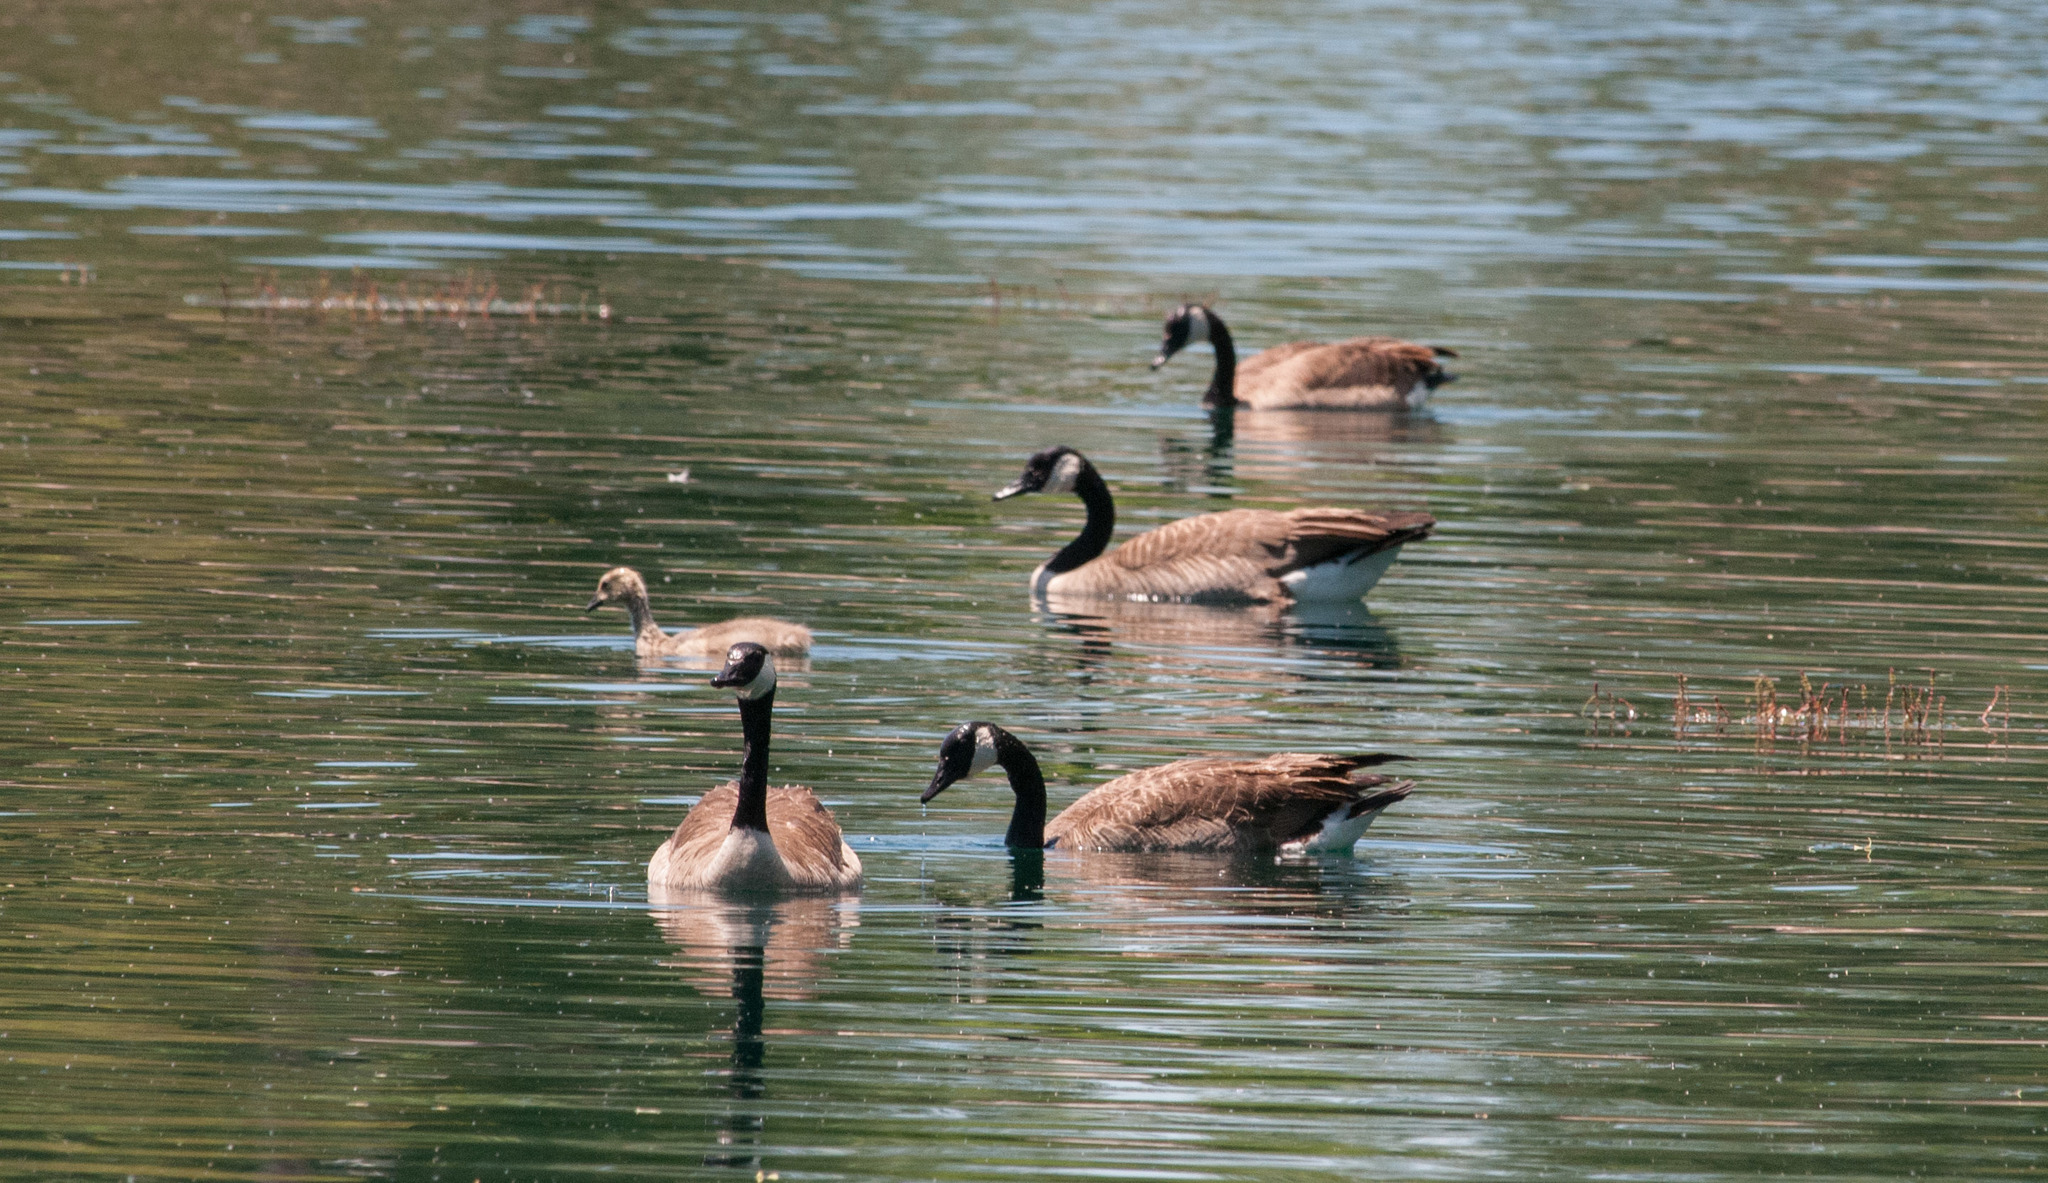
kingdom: Animalia
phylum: Chordata
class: Aves
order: Anseriformes
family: Anatidae
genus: Branta
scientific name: Branta canadensis
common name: Canada goose
